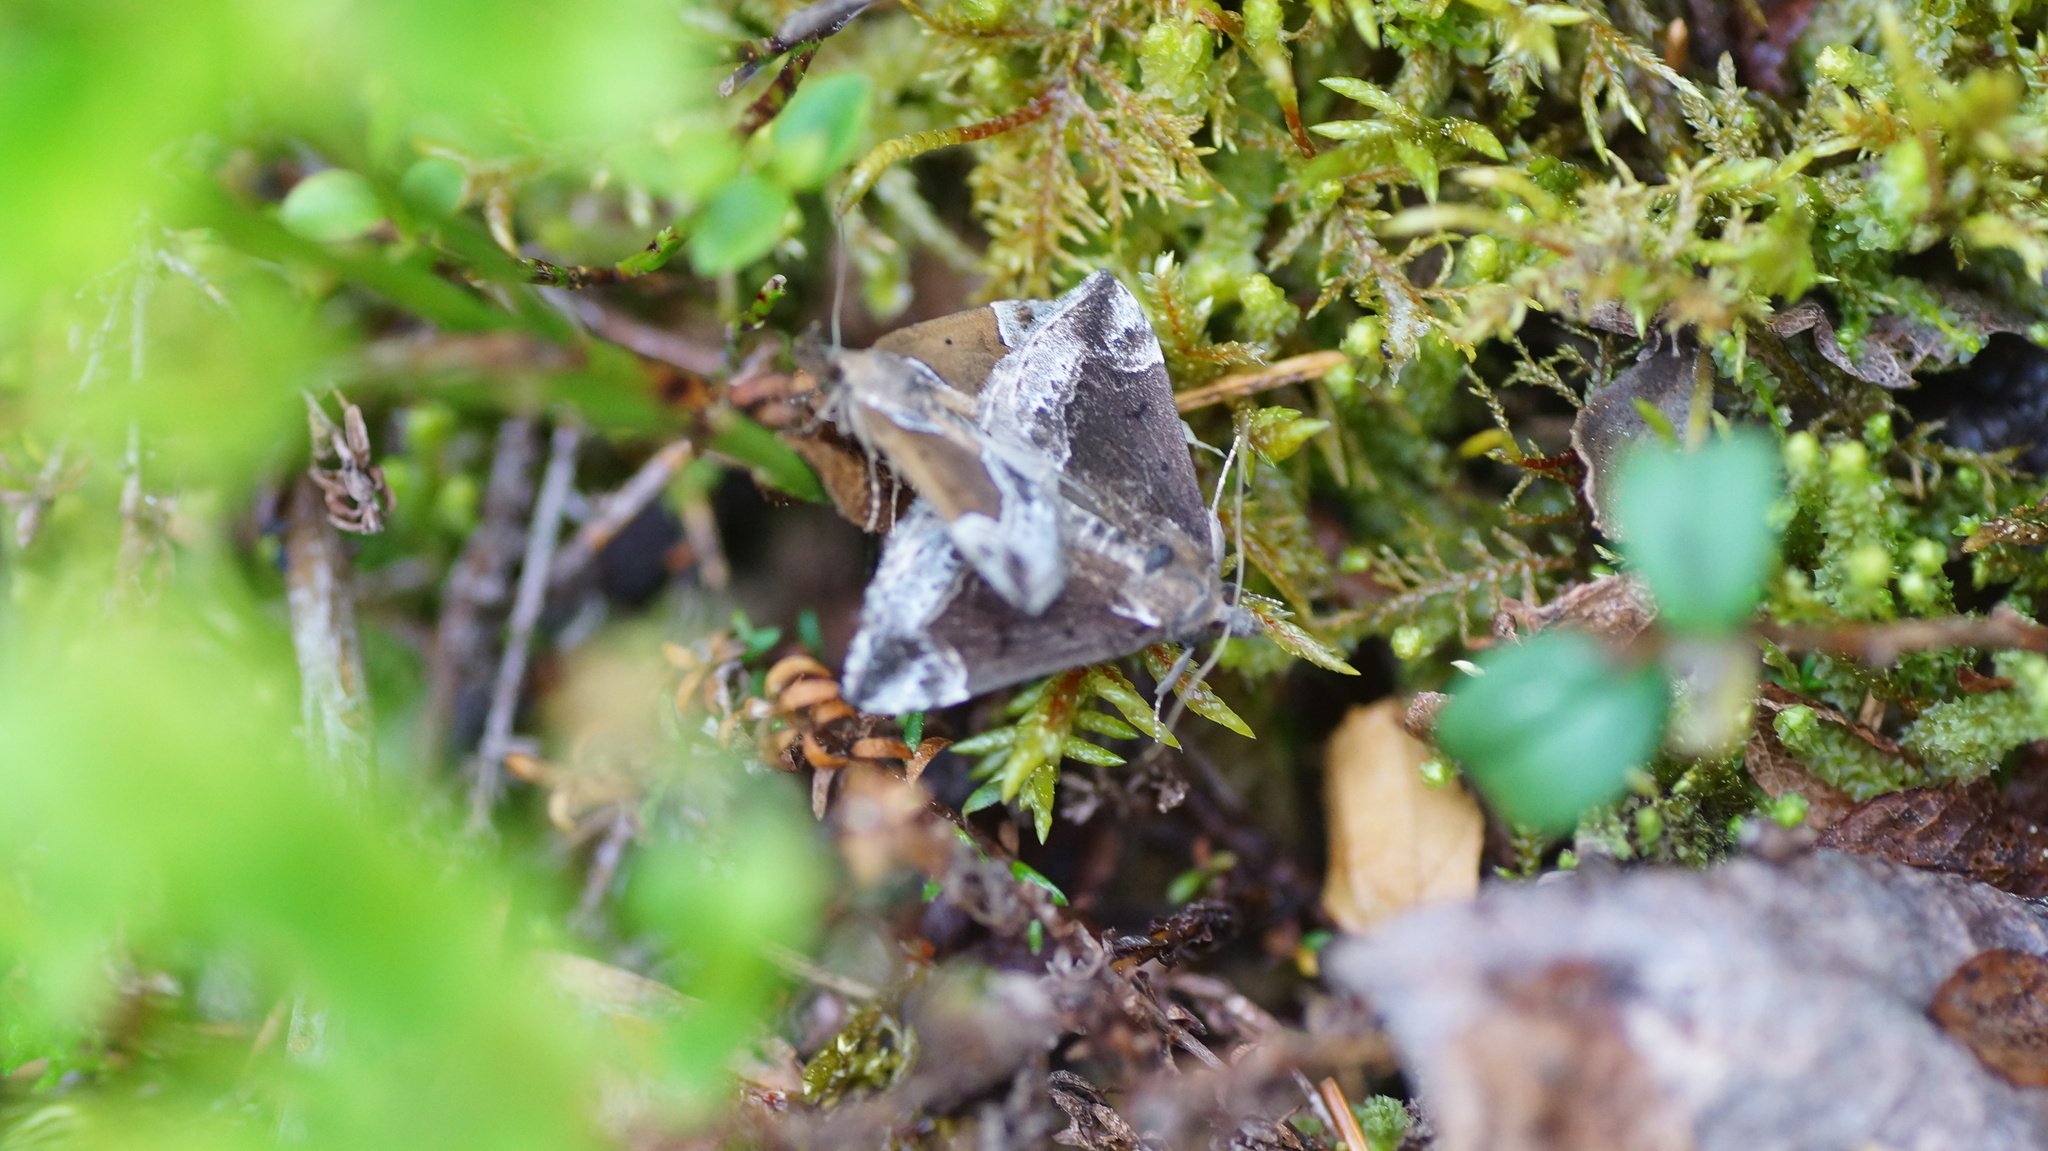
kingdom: Animalia
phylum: Arthropoda
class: Insecta
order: Lepidoptera
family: Erebidae
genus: Hypena
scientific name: Hypena crassalis
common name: Beautiful snout
